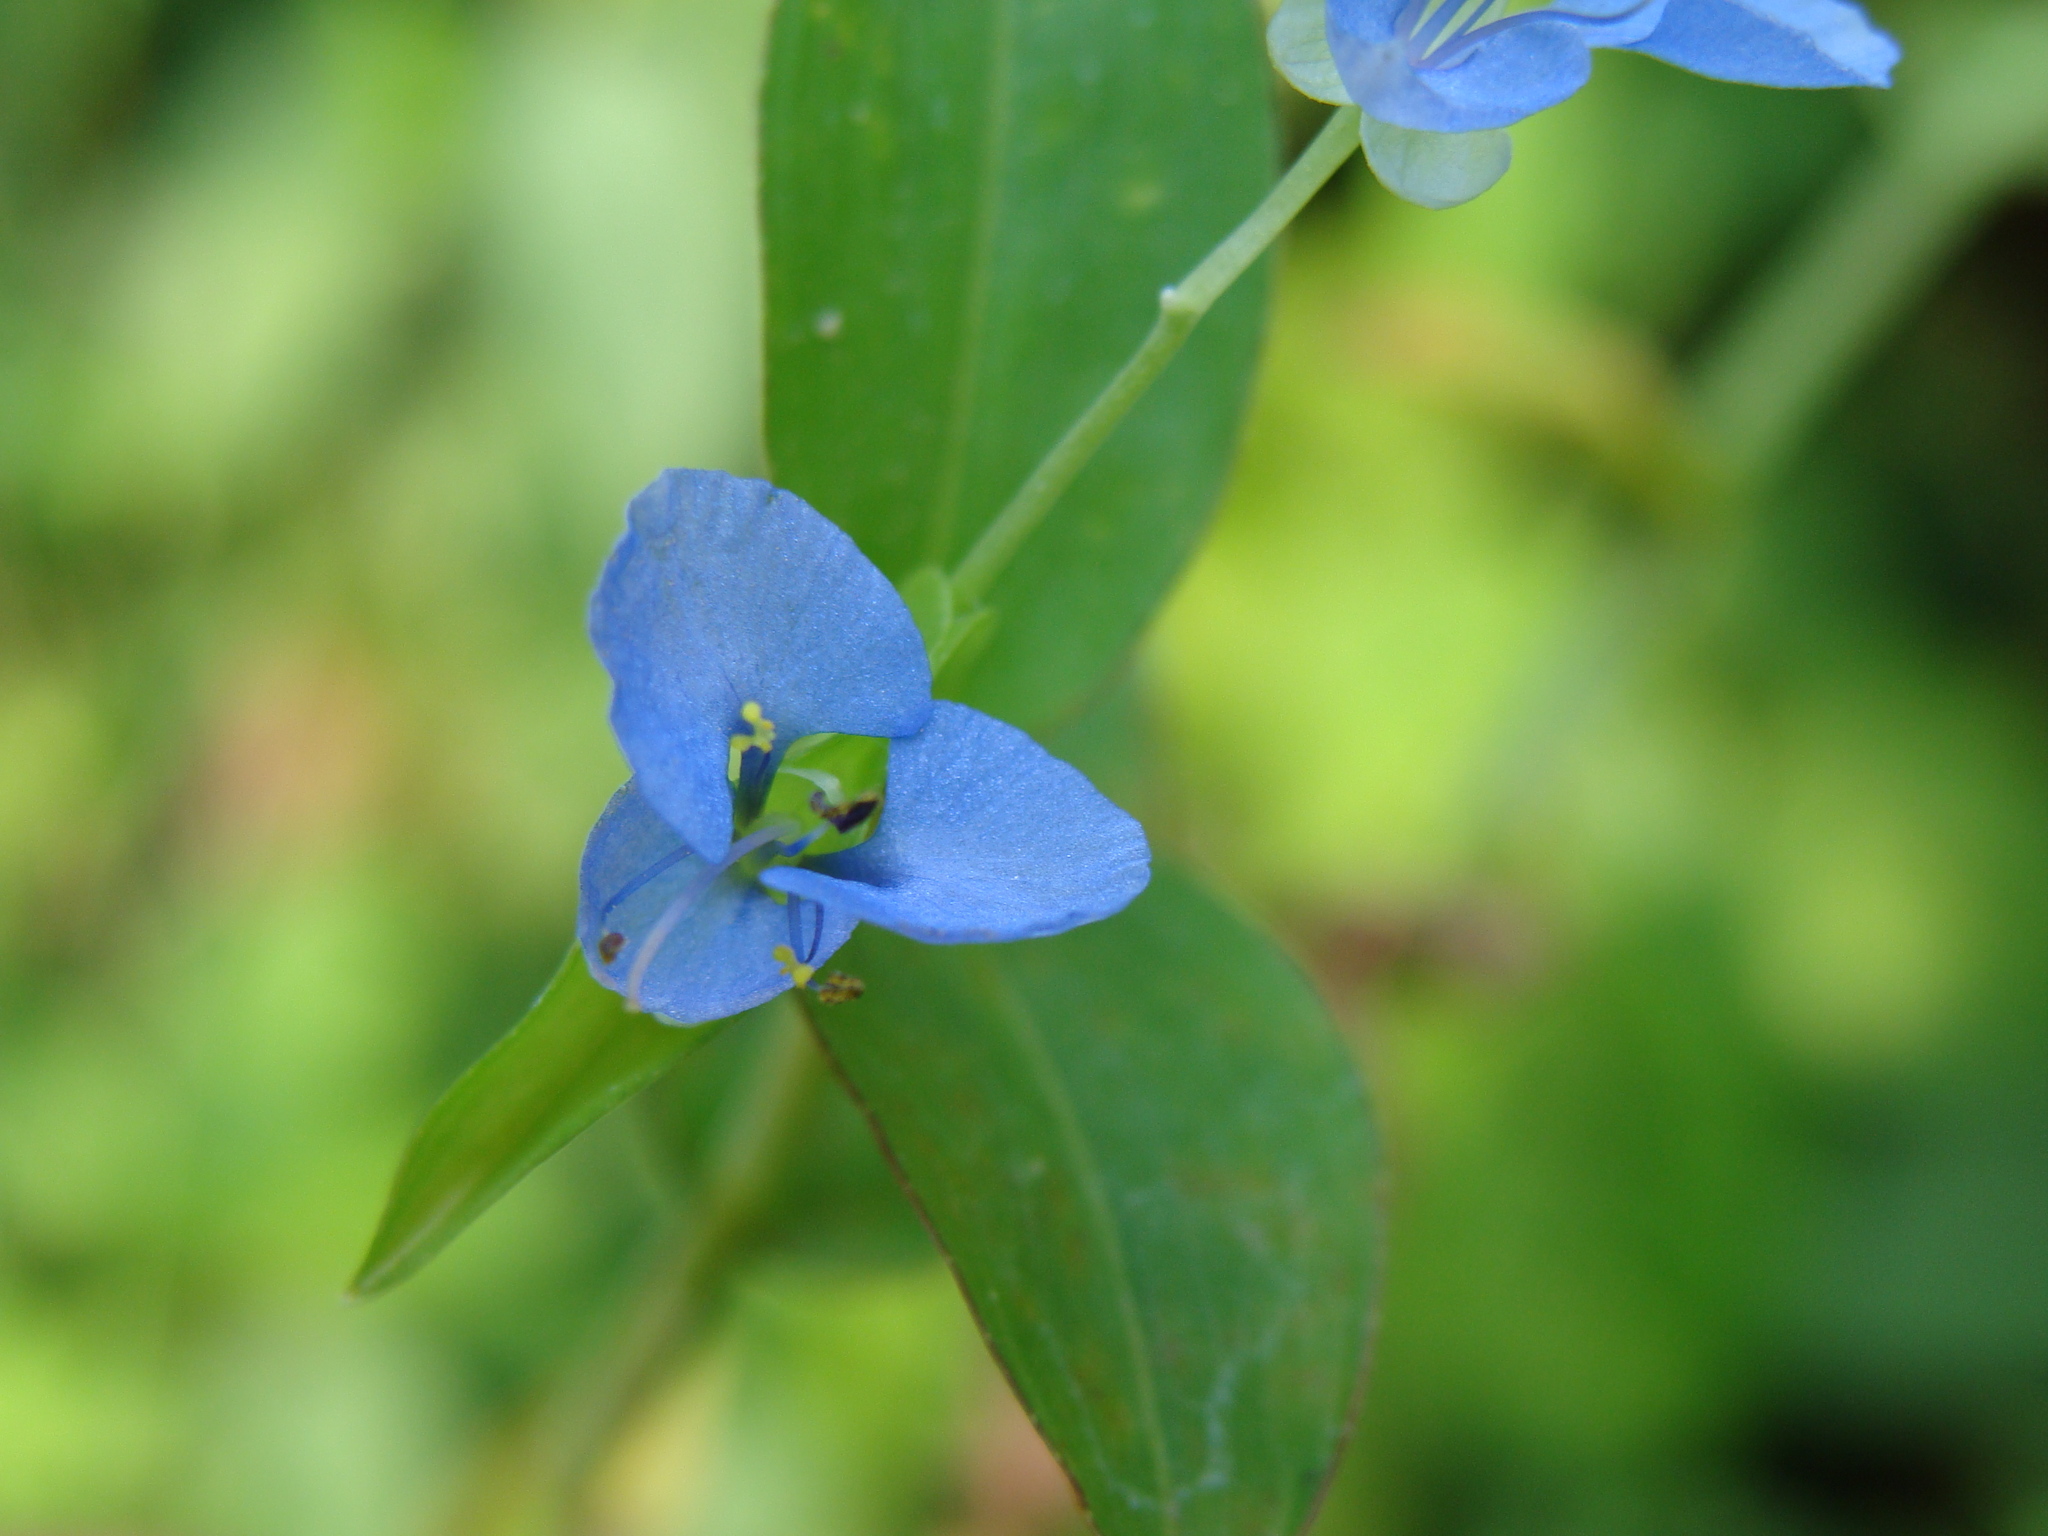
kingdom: Plantae
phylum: Tracheophyta
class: Liliopsida
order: Commelinales
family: Commelinaceae
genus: Commelina
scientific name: Commelina diffusa
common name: Climbing dayflower
